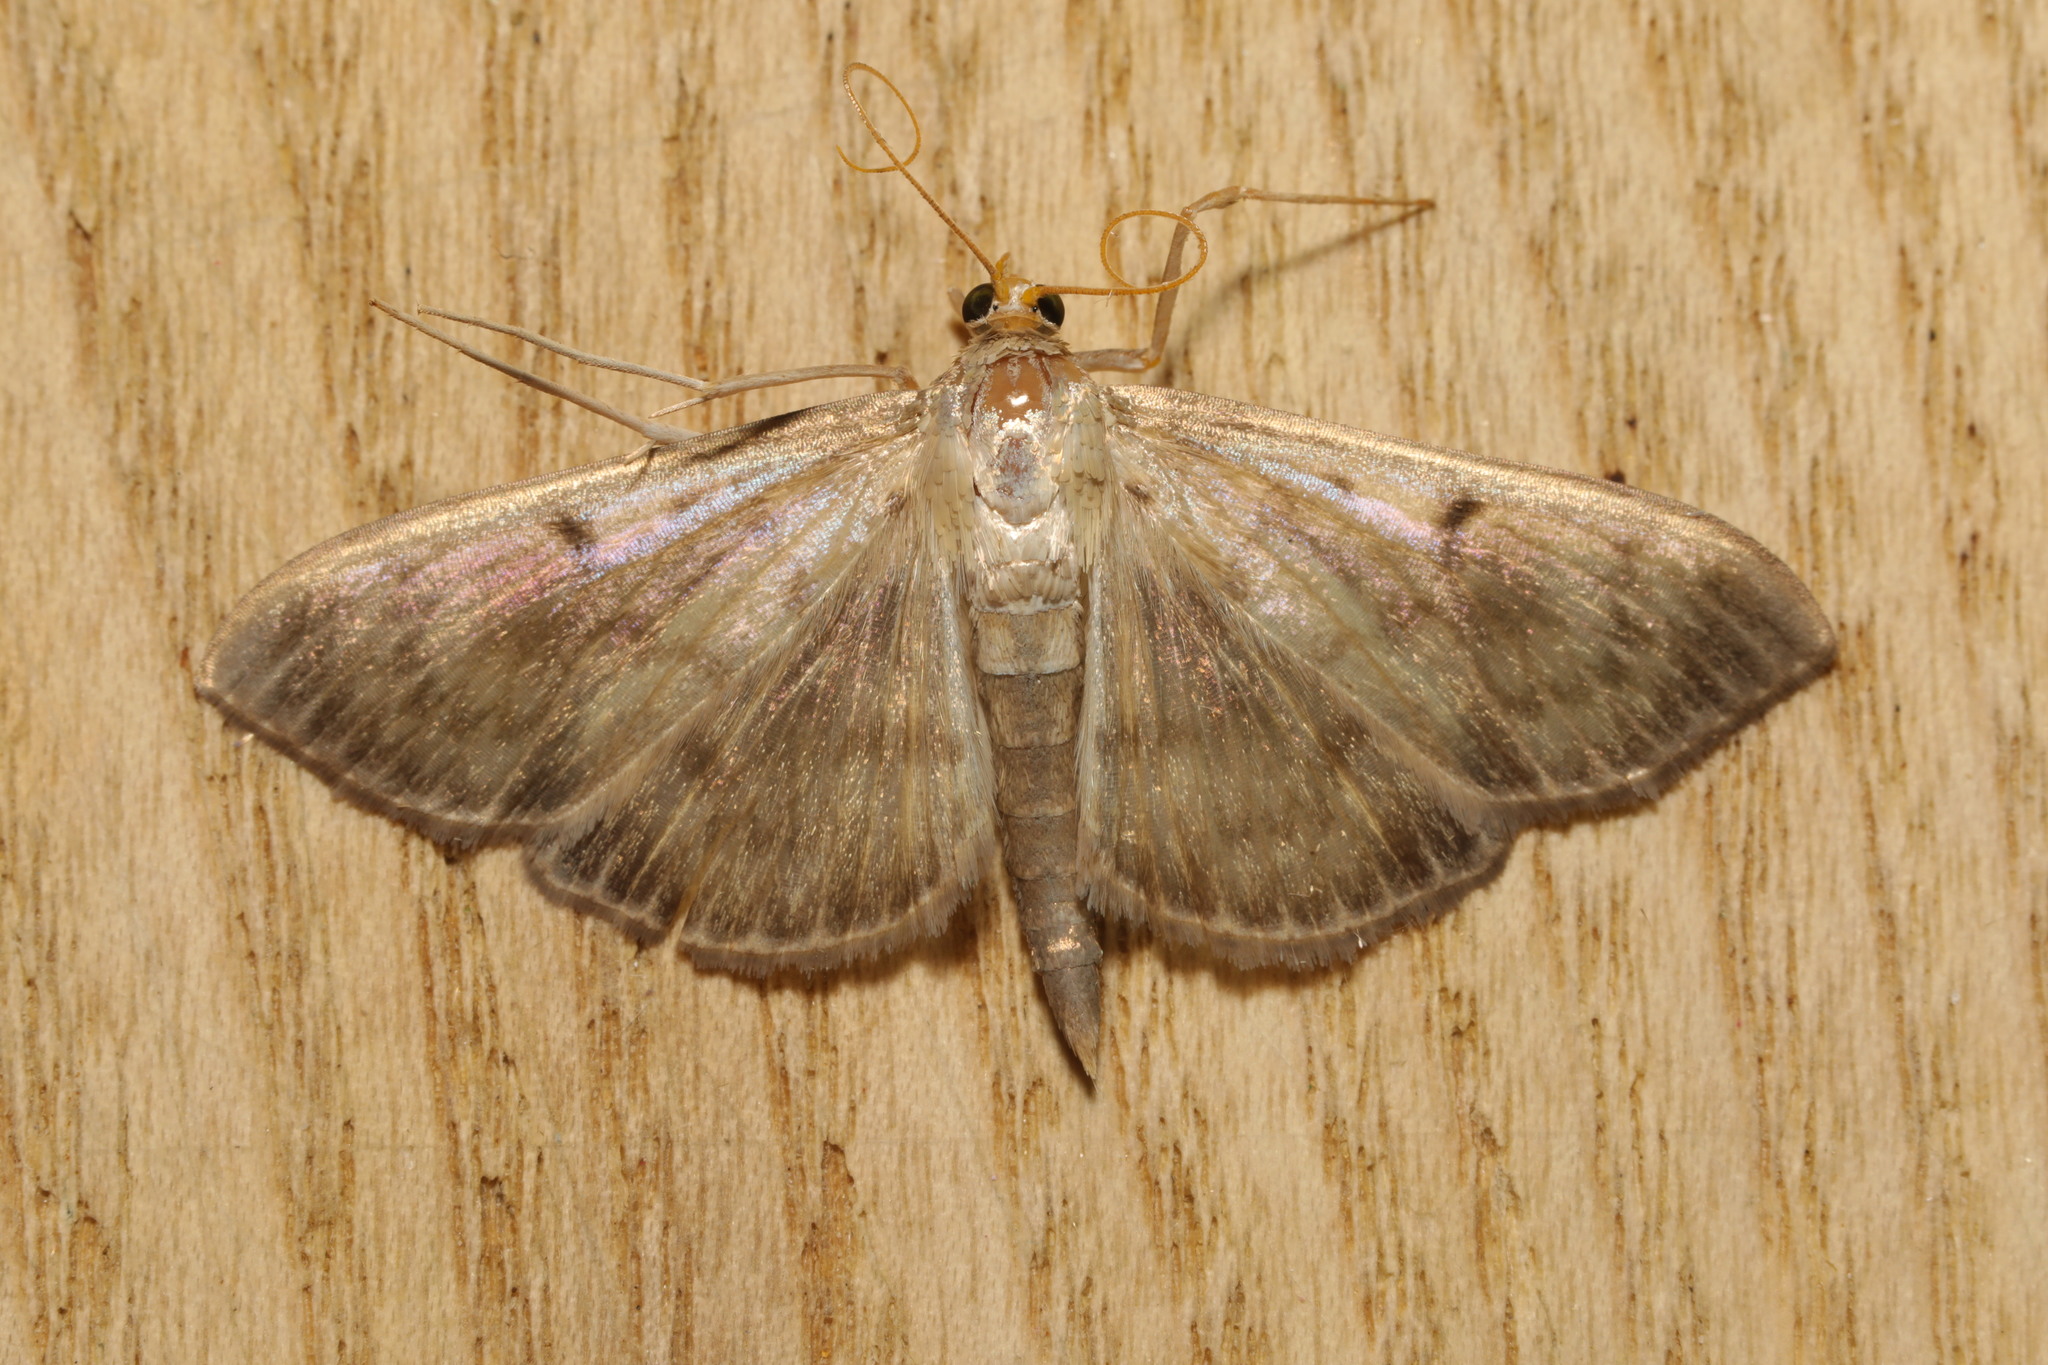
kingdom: Animalia
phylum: Arthropoda
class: Insecta
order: Lepidoptera
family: Crambidae
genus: Patania
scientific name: Patania ruralis
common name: Mother of pearl
